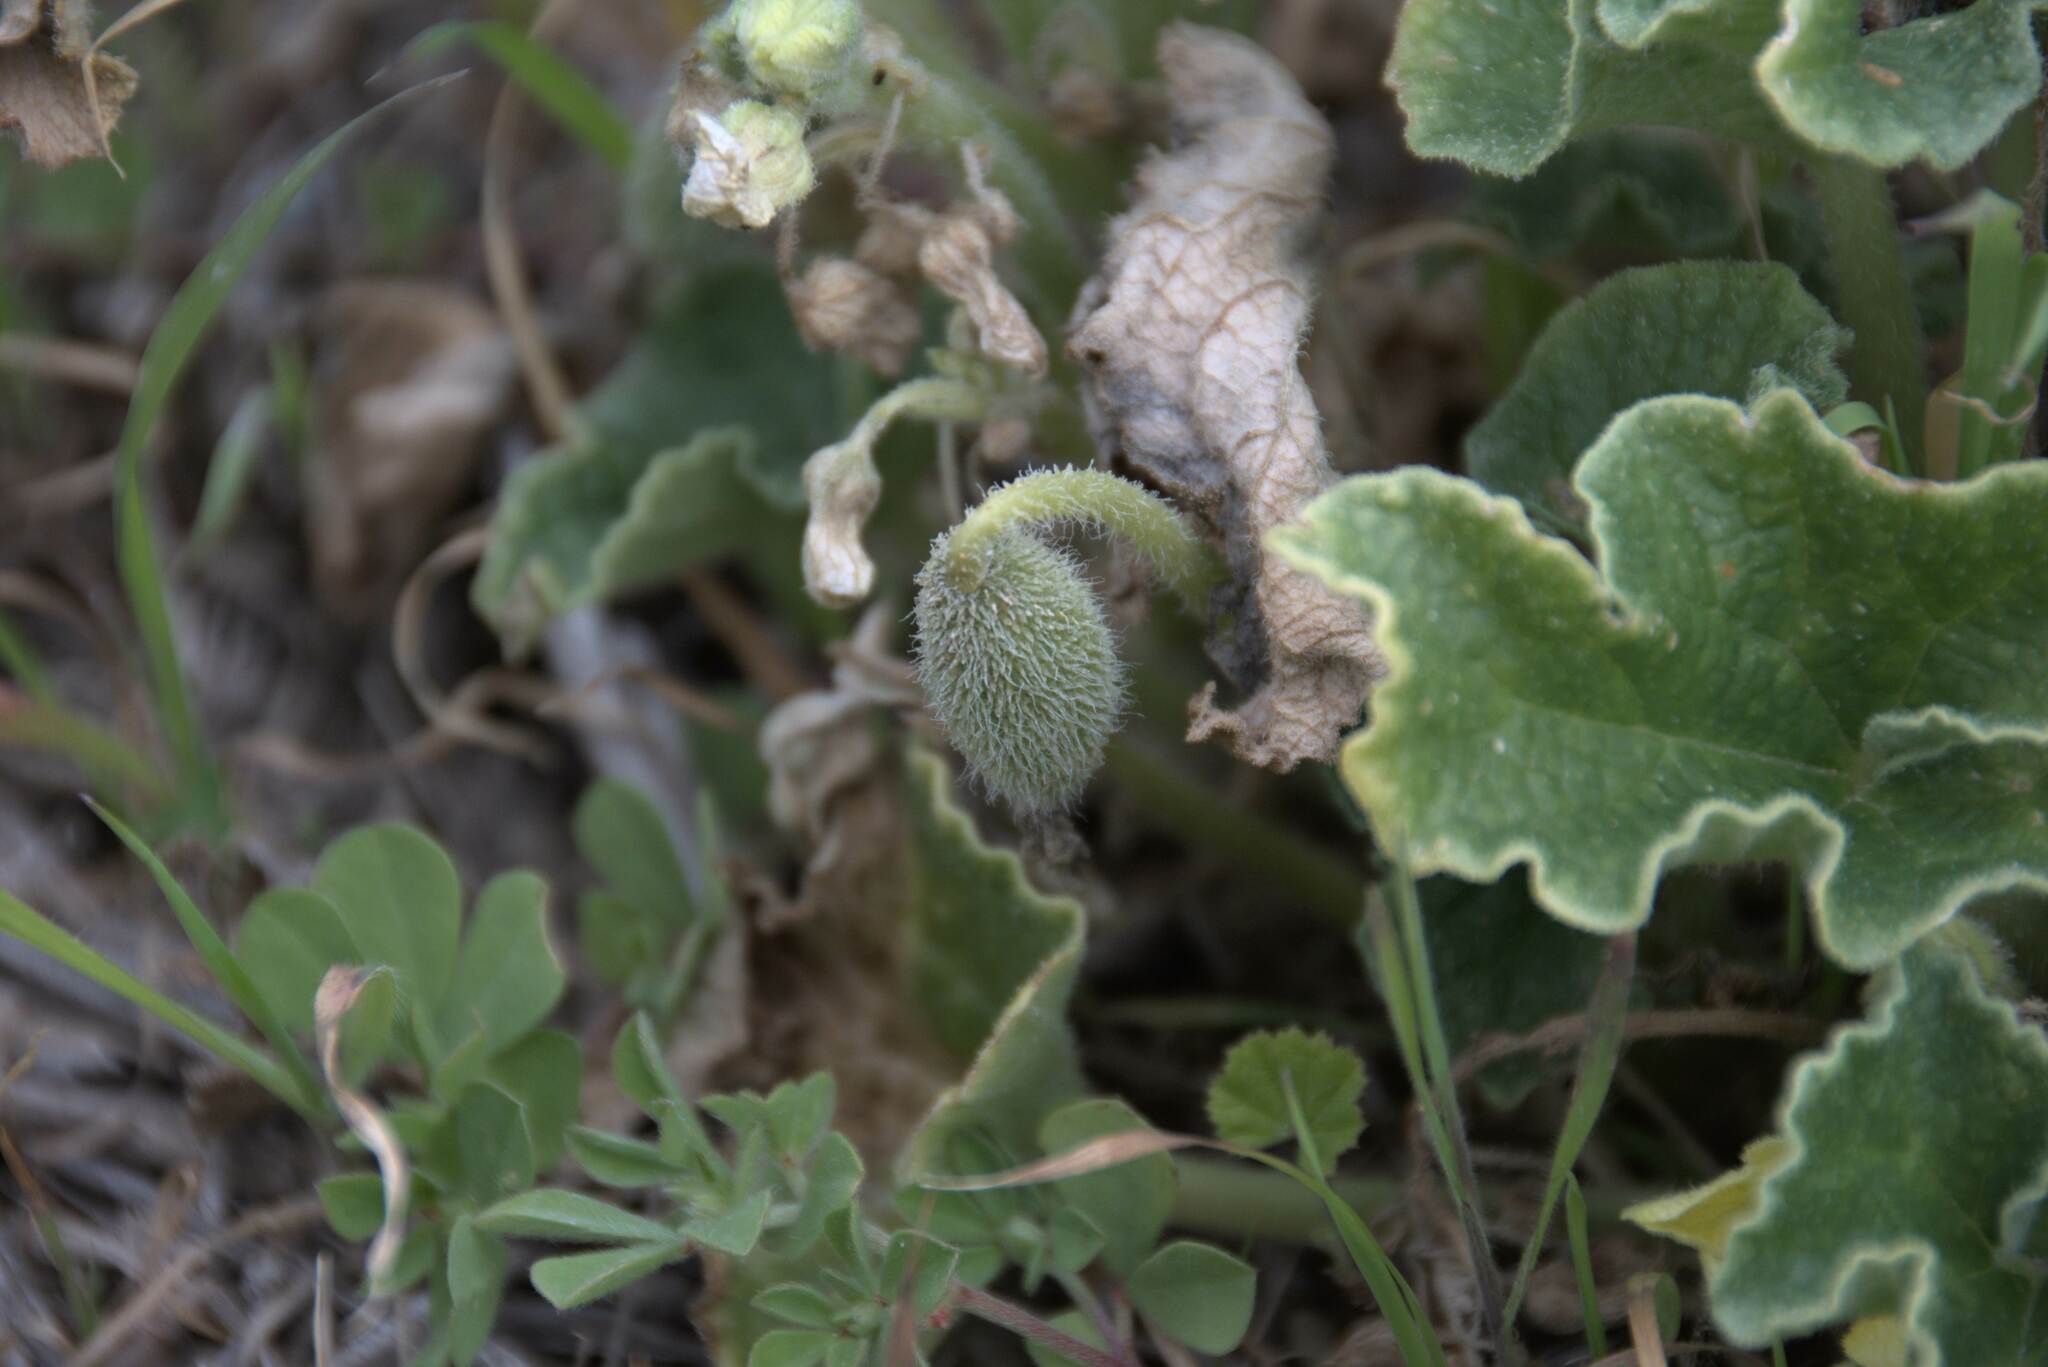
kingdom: Plantae
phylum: Tracheophyta
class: Magnoliopsida
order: Cucurbitales
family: Cucurbitaceae
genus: Ecballium
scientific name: Ecballium elaterium
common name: Squirting cucumber
